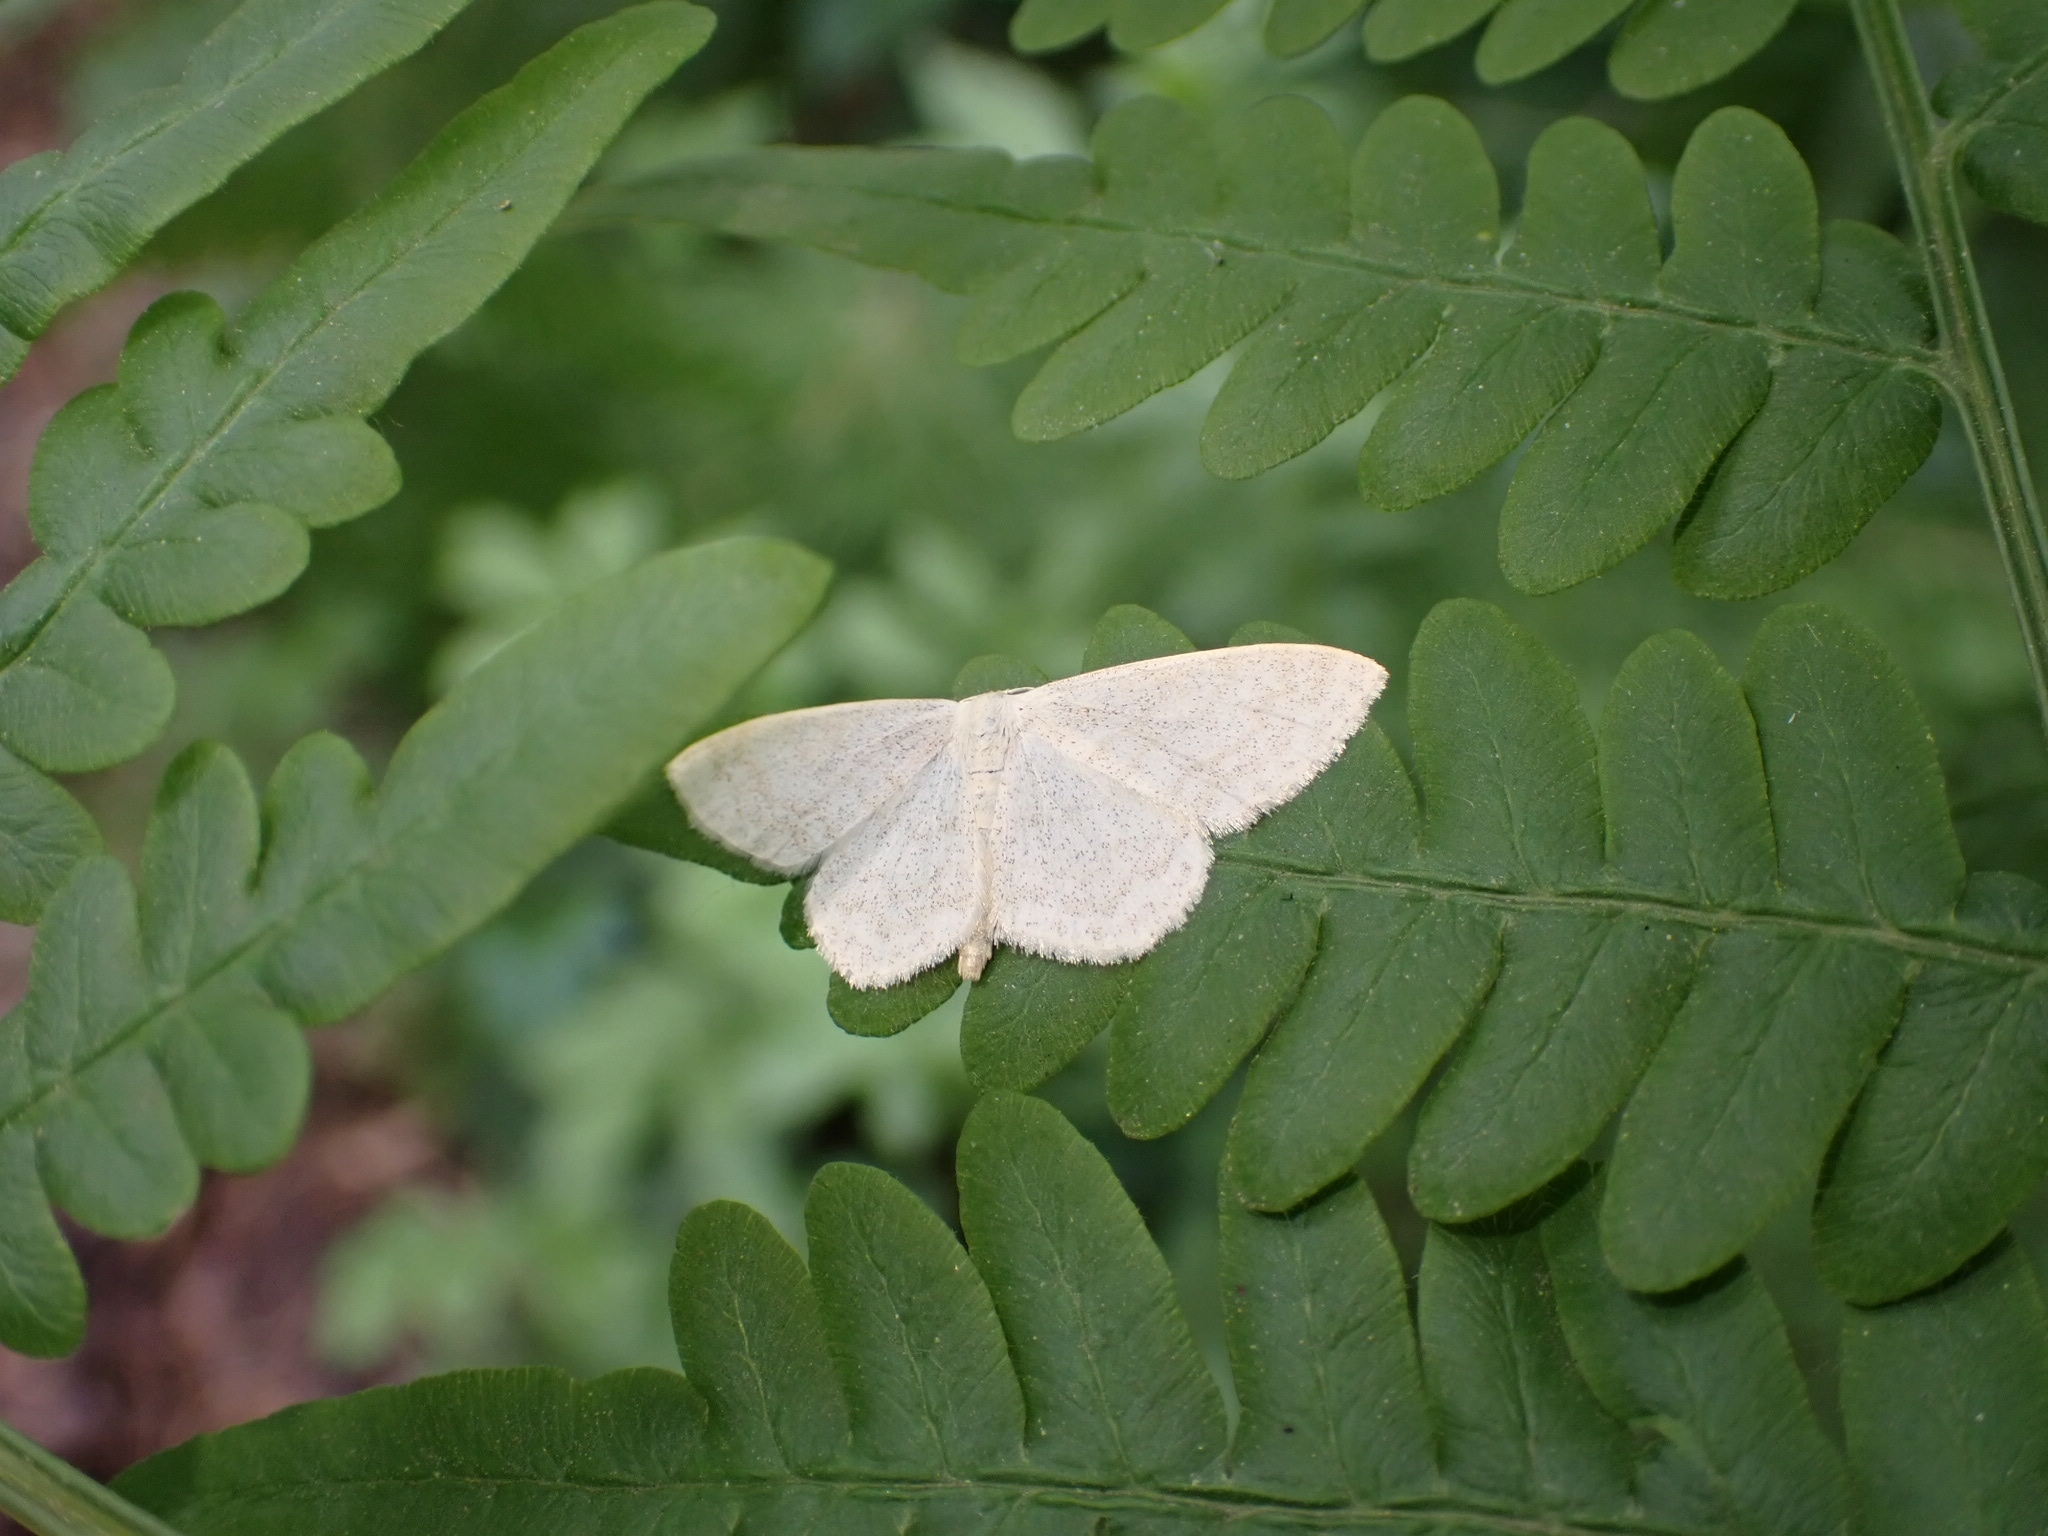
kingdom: Animalia
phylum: Arthropoda
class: Insecta
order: Lepidoptera
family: Geometridae
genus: Scopula
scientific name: Scopula floslactata
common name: Cream wave
